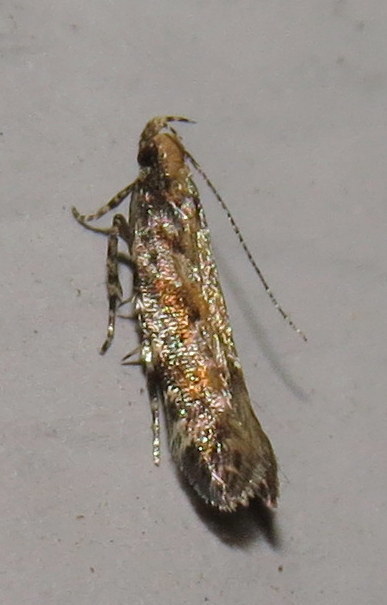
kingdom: Animalia
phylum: Arthropoda
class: Insecta
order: Lepidoptera
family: Gelechiidae
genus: Aristotelia
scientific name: Aristotelia rubidella
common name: Ruby aristotelia moth
